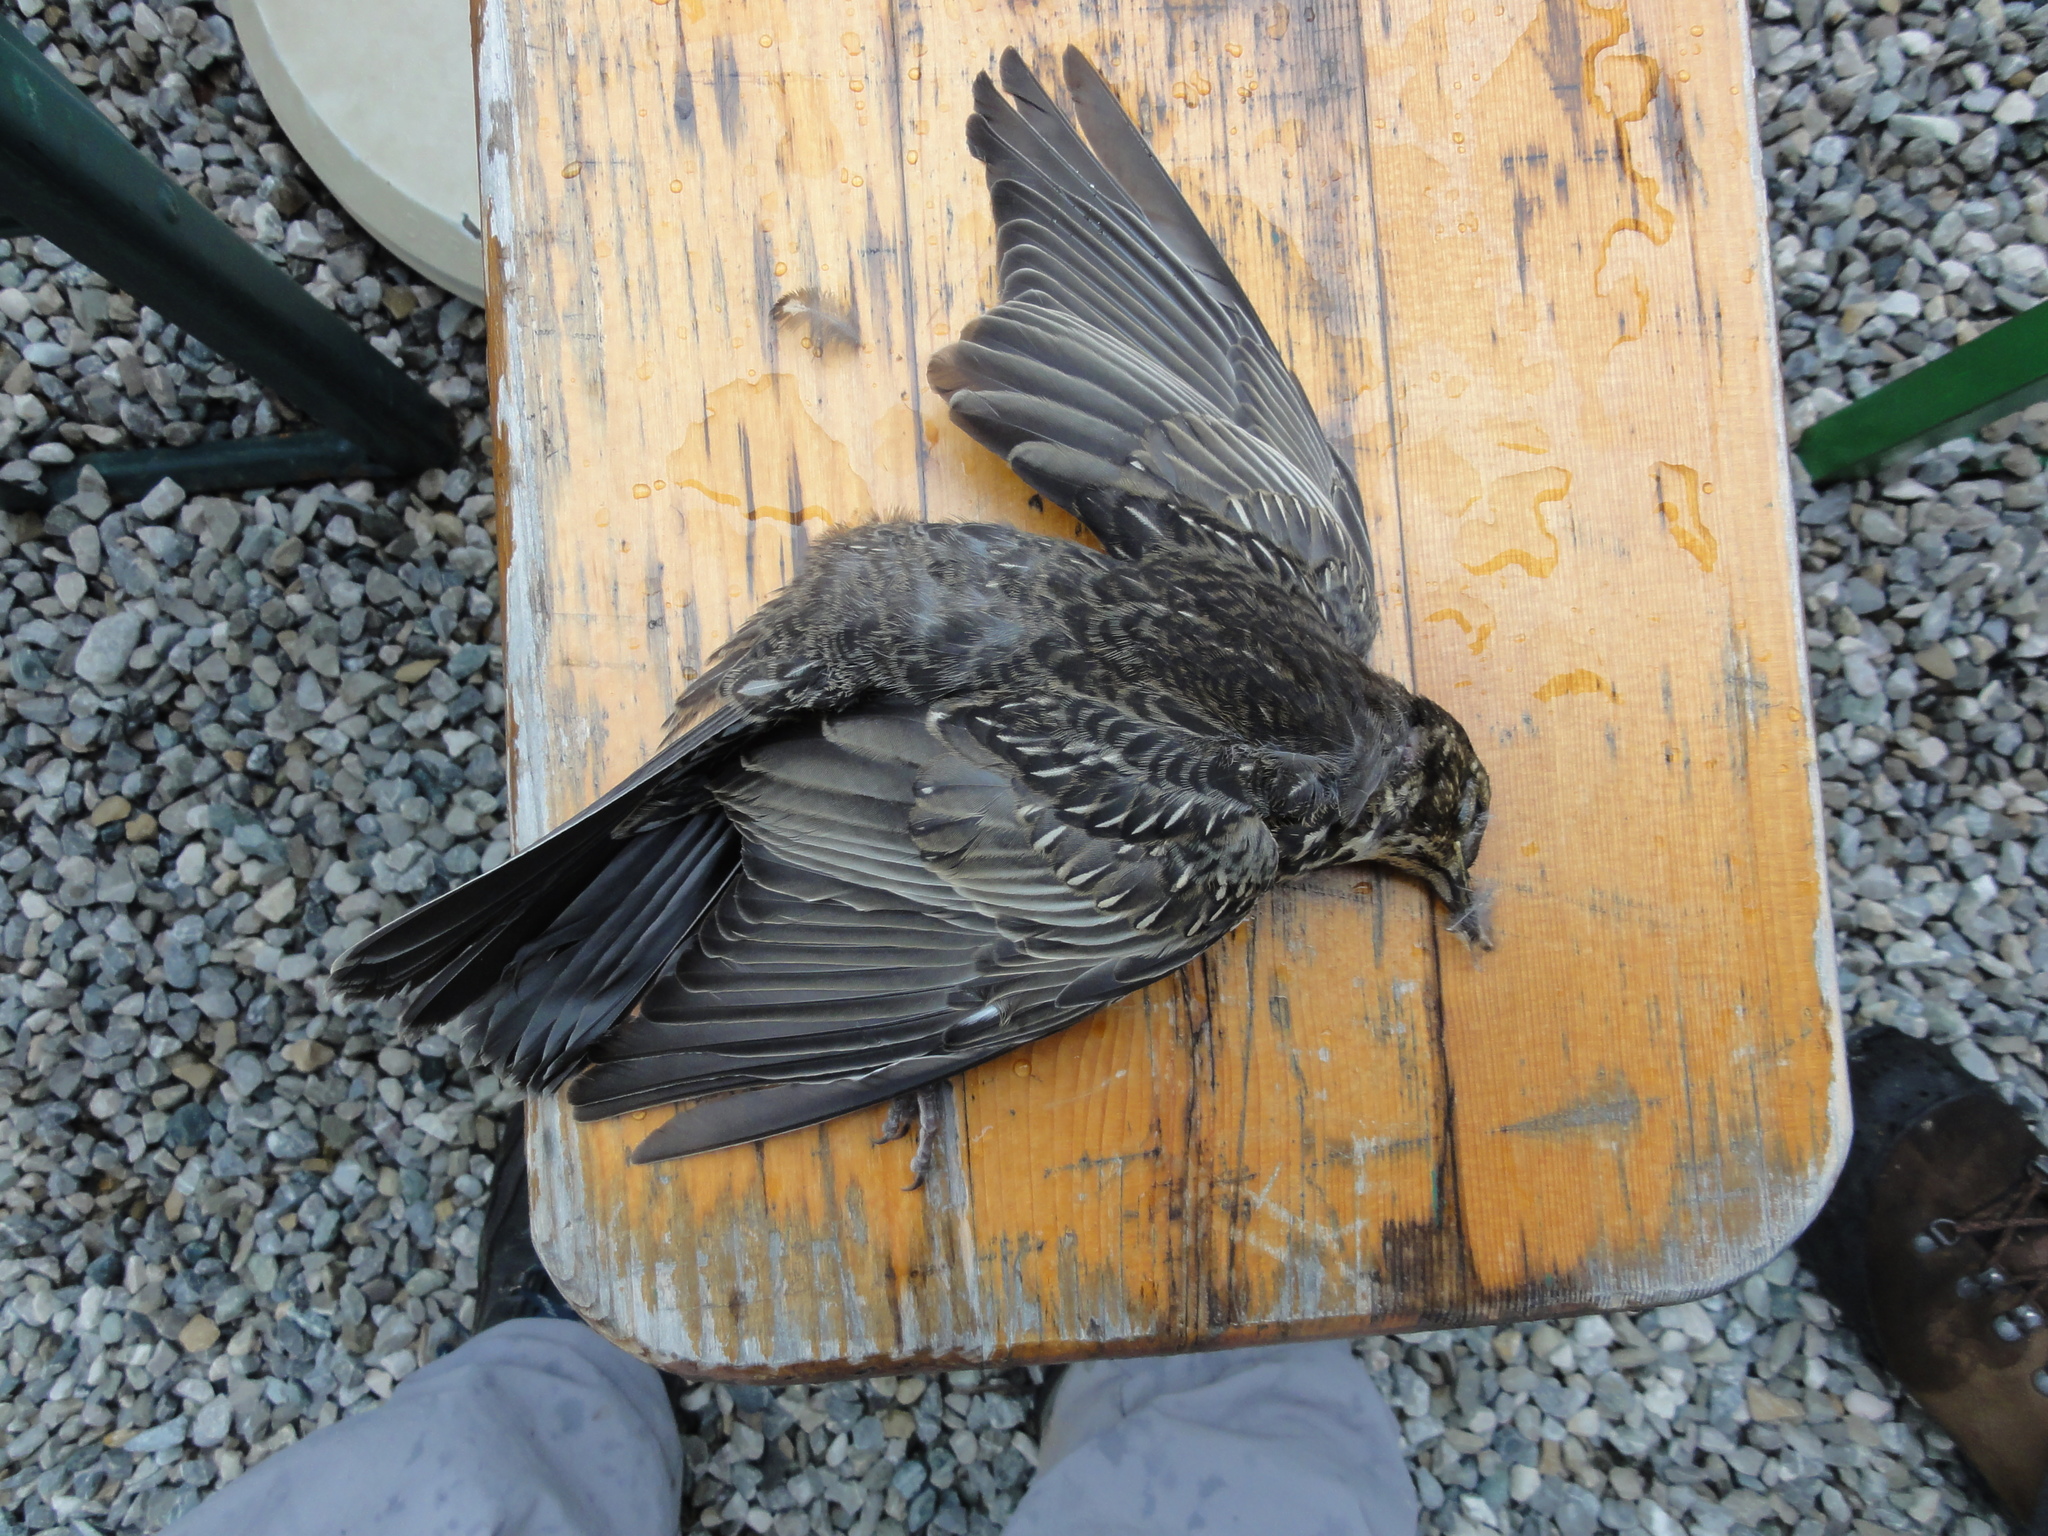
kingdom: Animalia
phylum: Chordata
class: Aves
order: Passeriformes
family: Turdidae
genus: Turdus
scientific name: Turdus torquatus
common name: Ring ouzel
